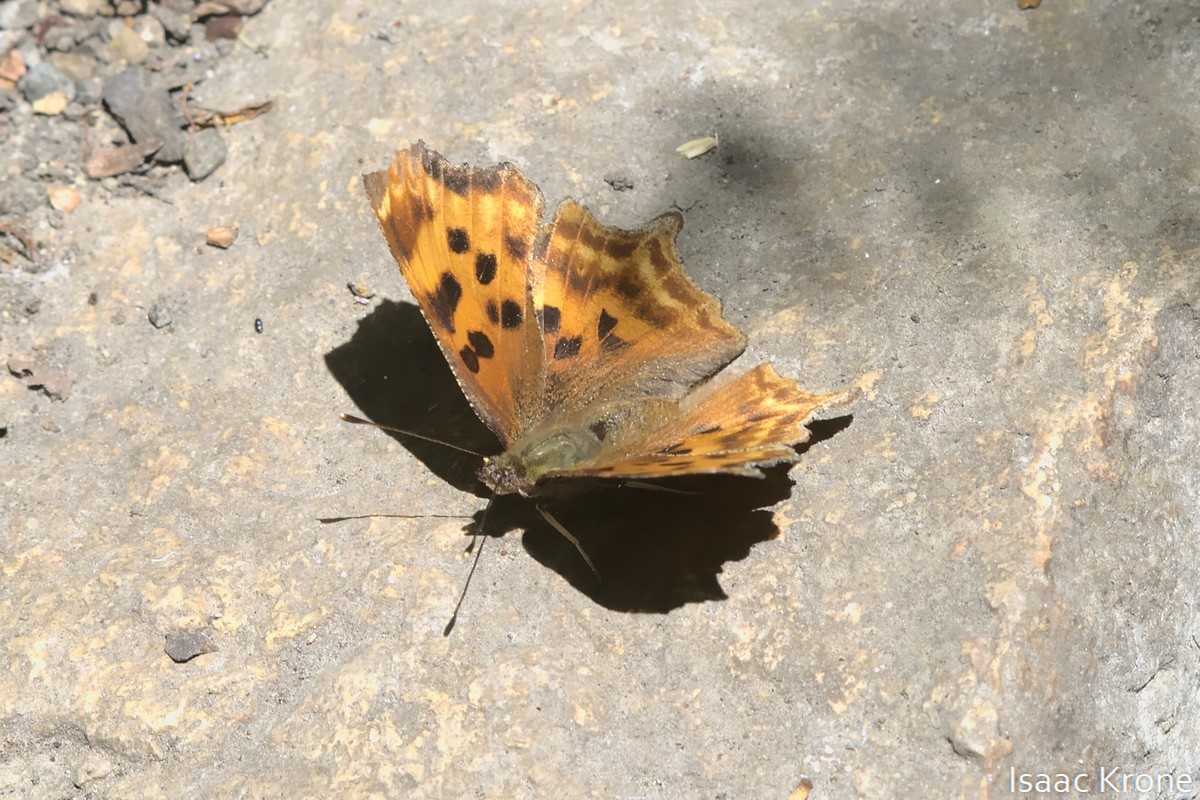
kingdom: Animalia
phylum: Arthropoda
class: Insecta
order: Lepidoptera
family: Nymphalidae
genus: Polygonia
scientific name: Polygonia satyrus
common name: Satyr angle wing
